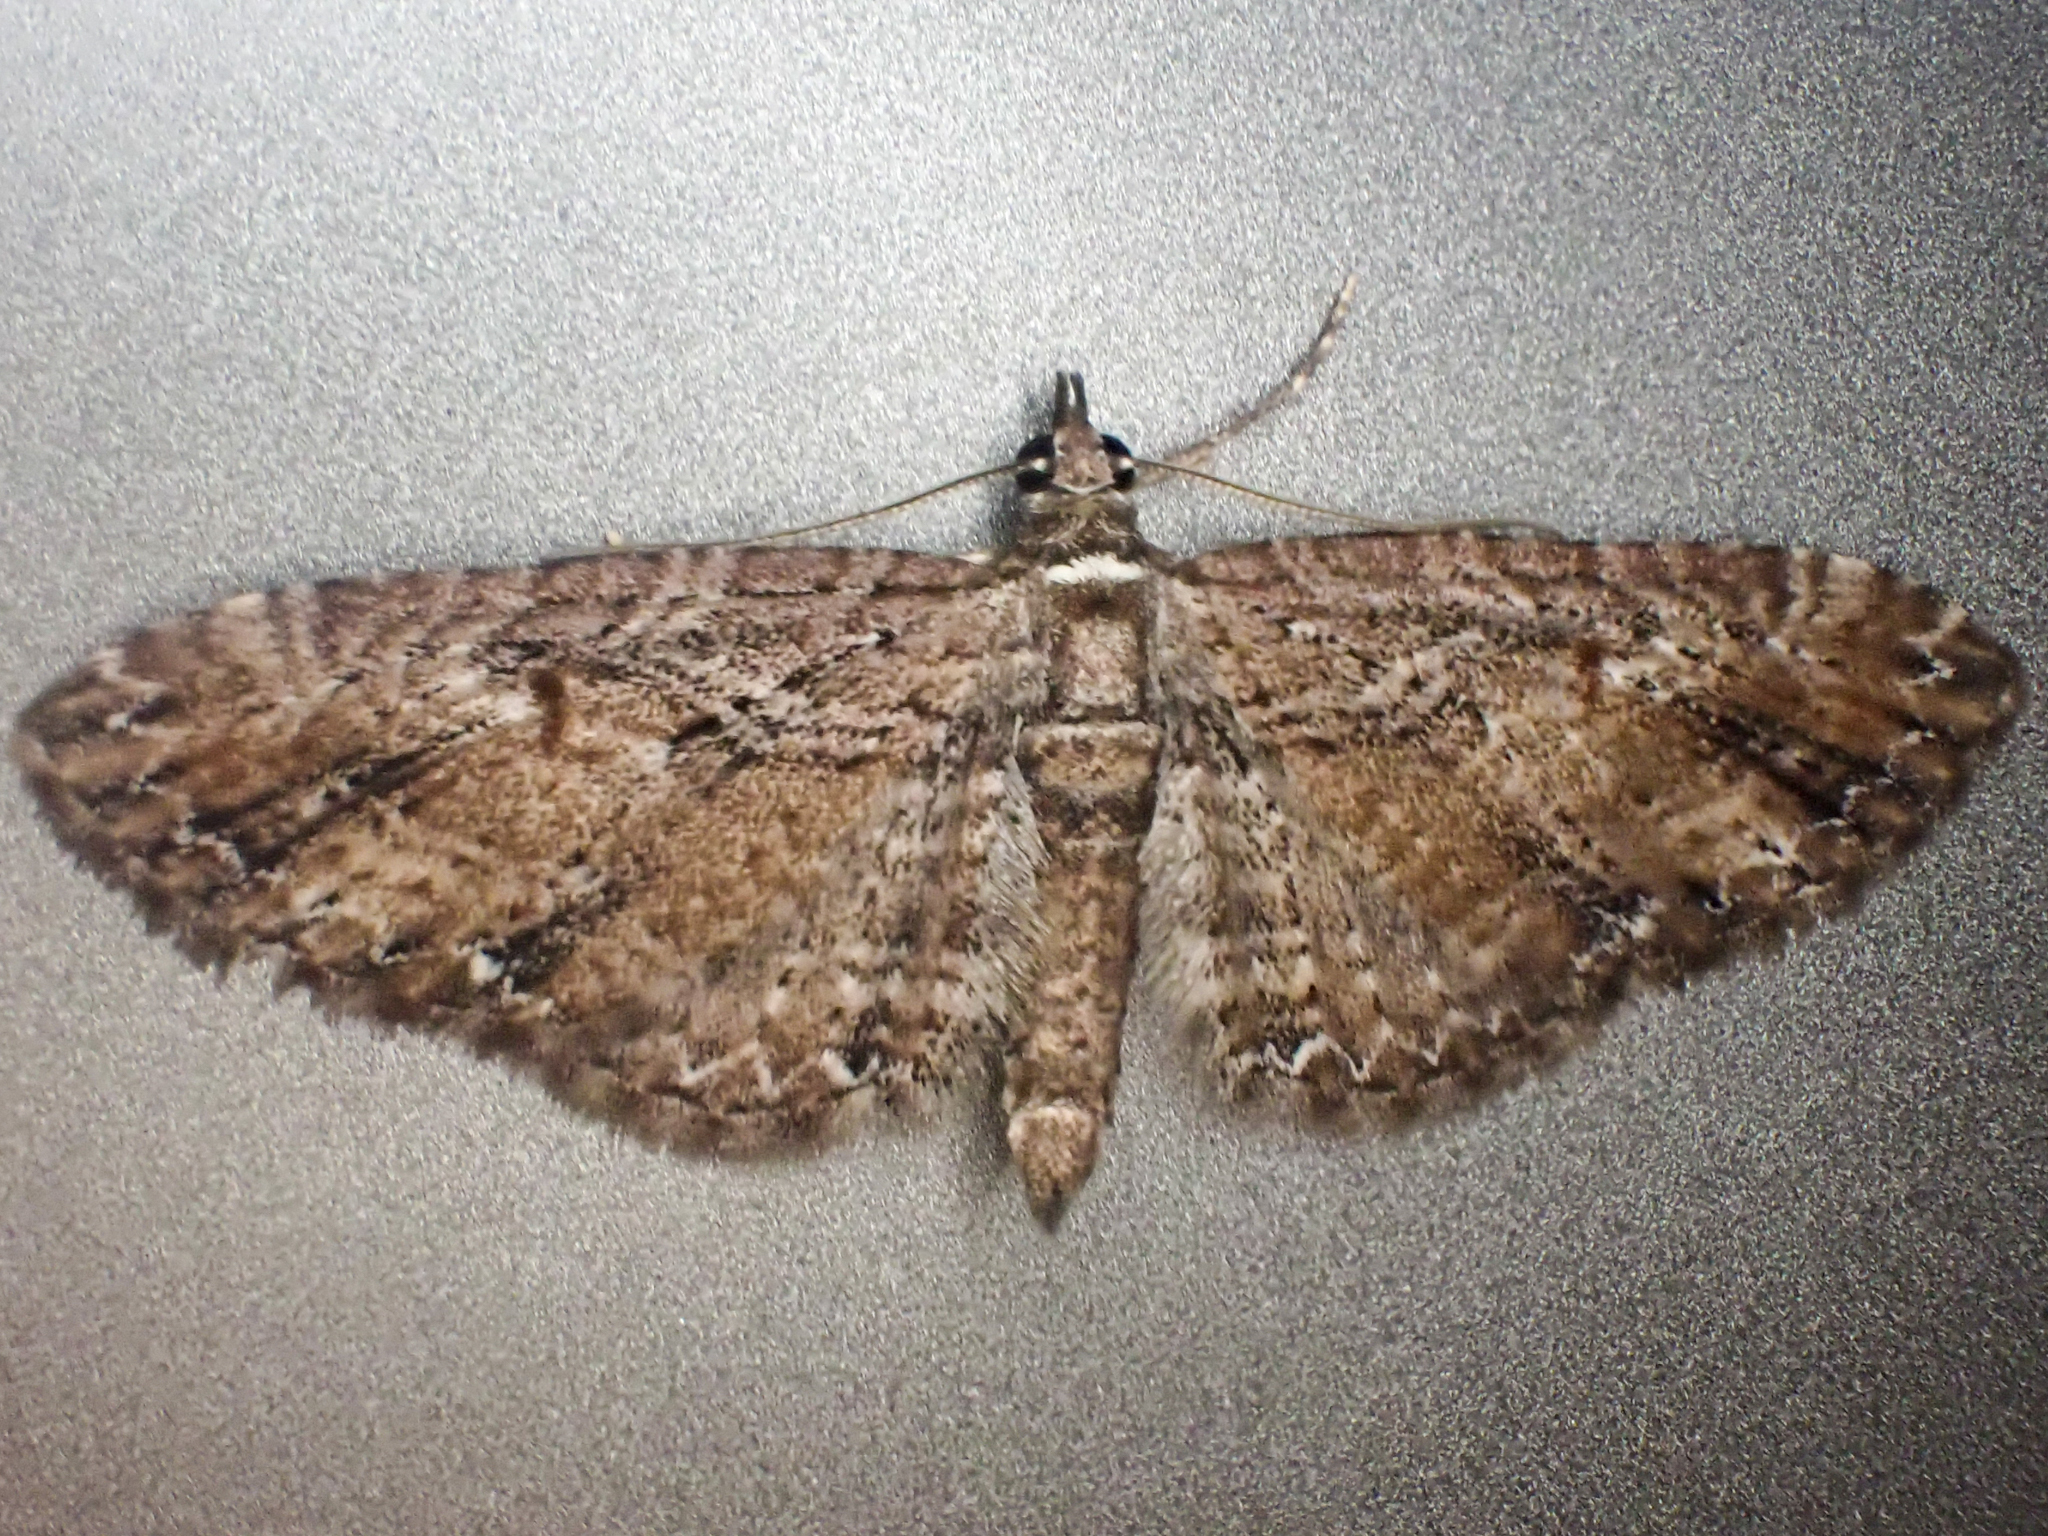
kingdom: Animalia
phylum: Arthropoda
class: Insecta
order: Lepidoptera
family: Geometridae
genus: Eupithecia
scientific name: Eupithecia graefii
